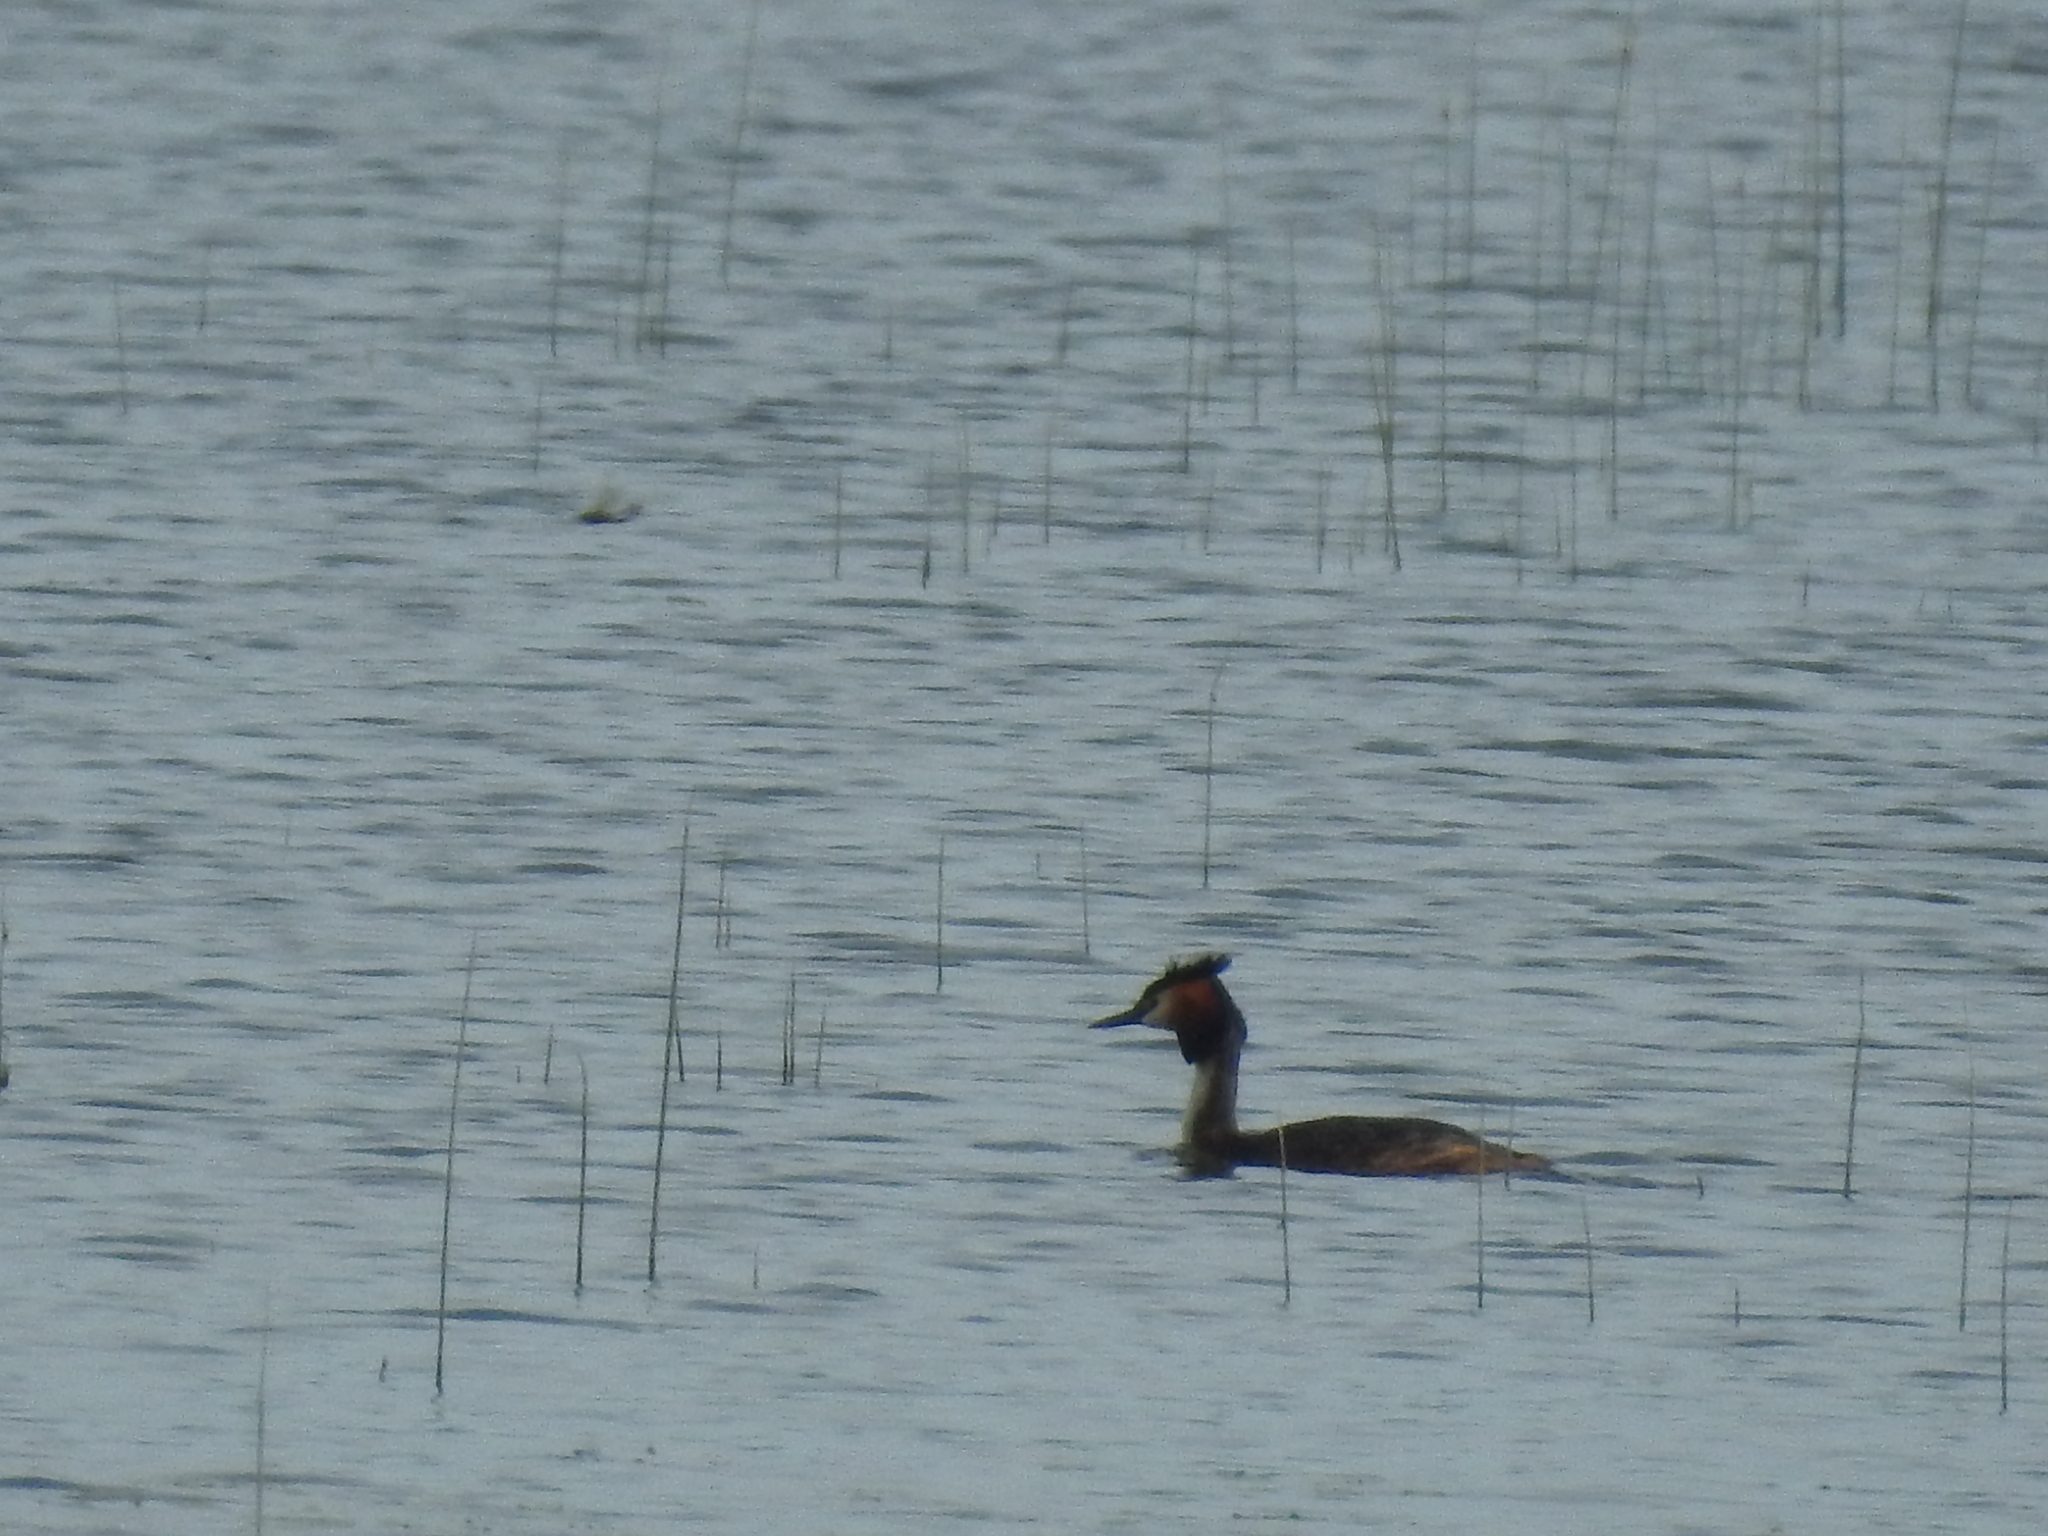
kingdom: Animalia
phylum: Chordata
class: Aves
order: Podicipediformes
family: Podicipedidae
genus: Podiceps
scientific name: Podiceps cristatus
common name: Great crested grebe
